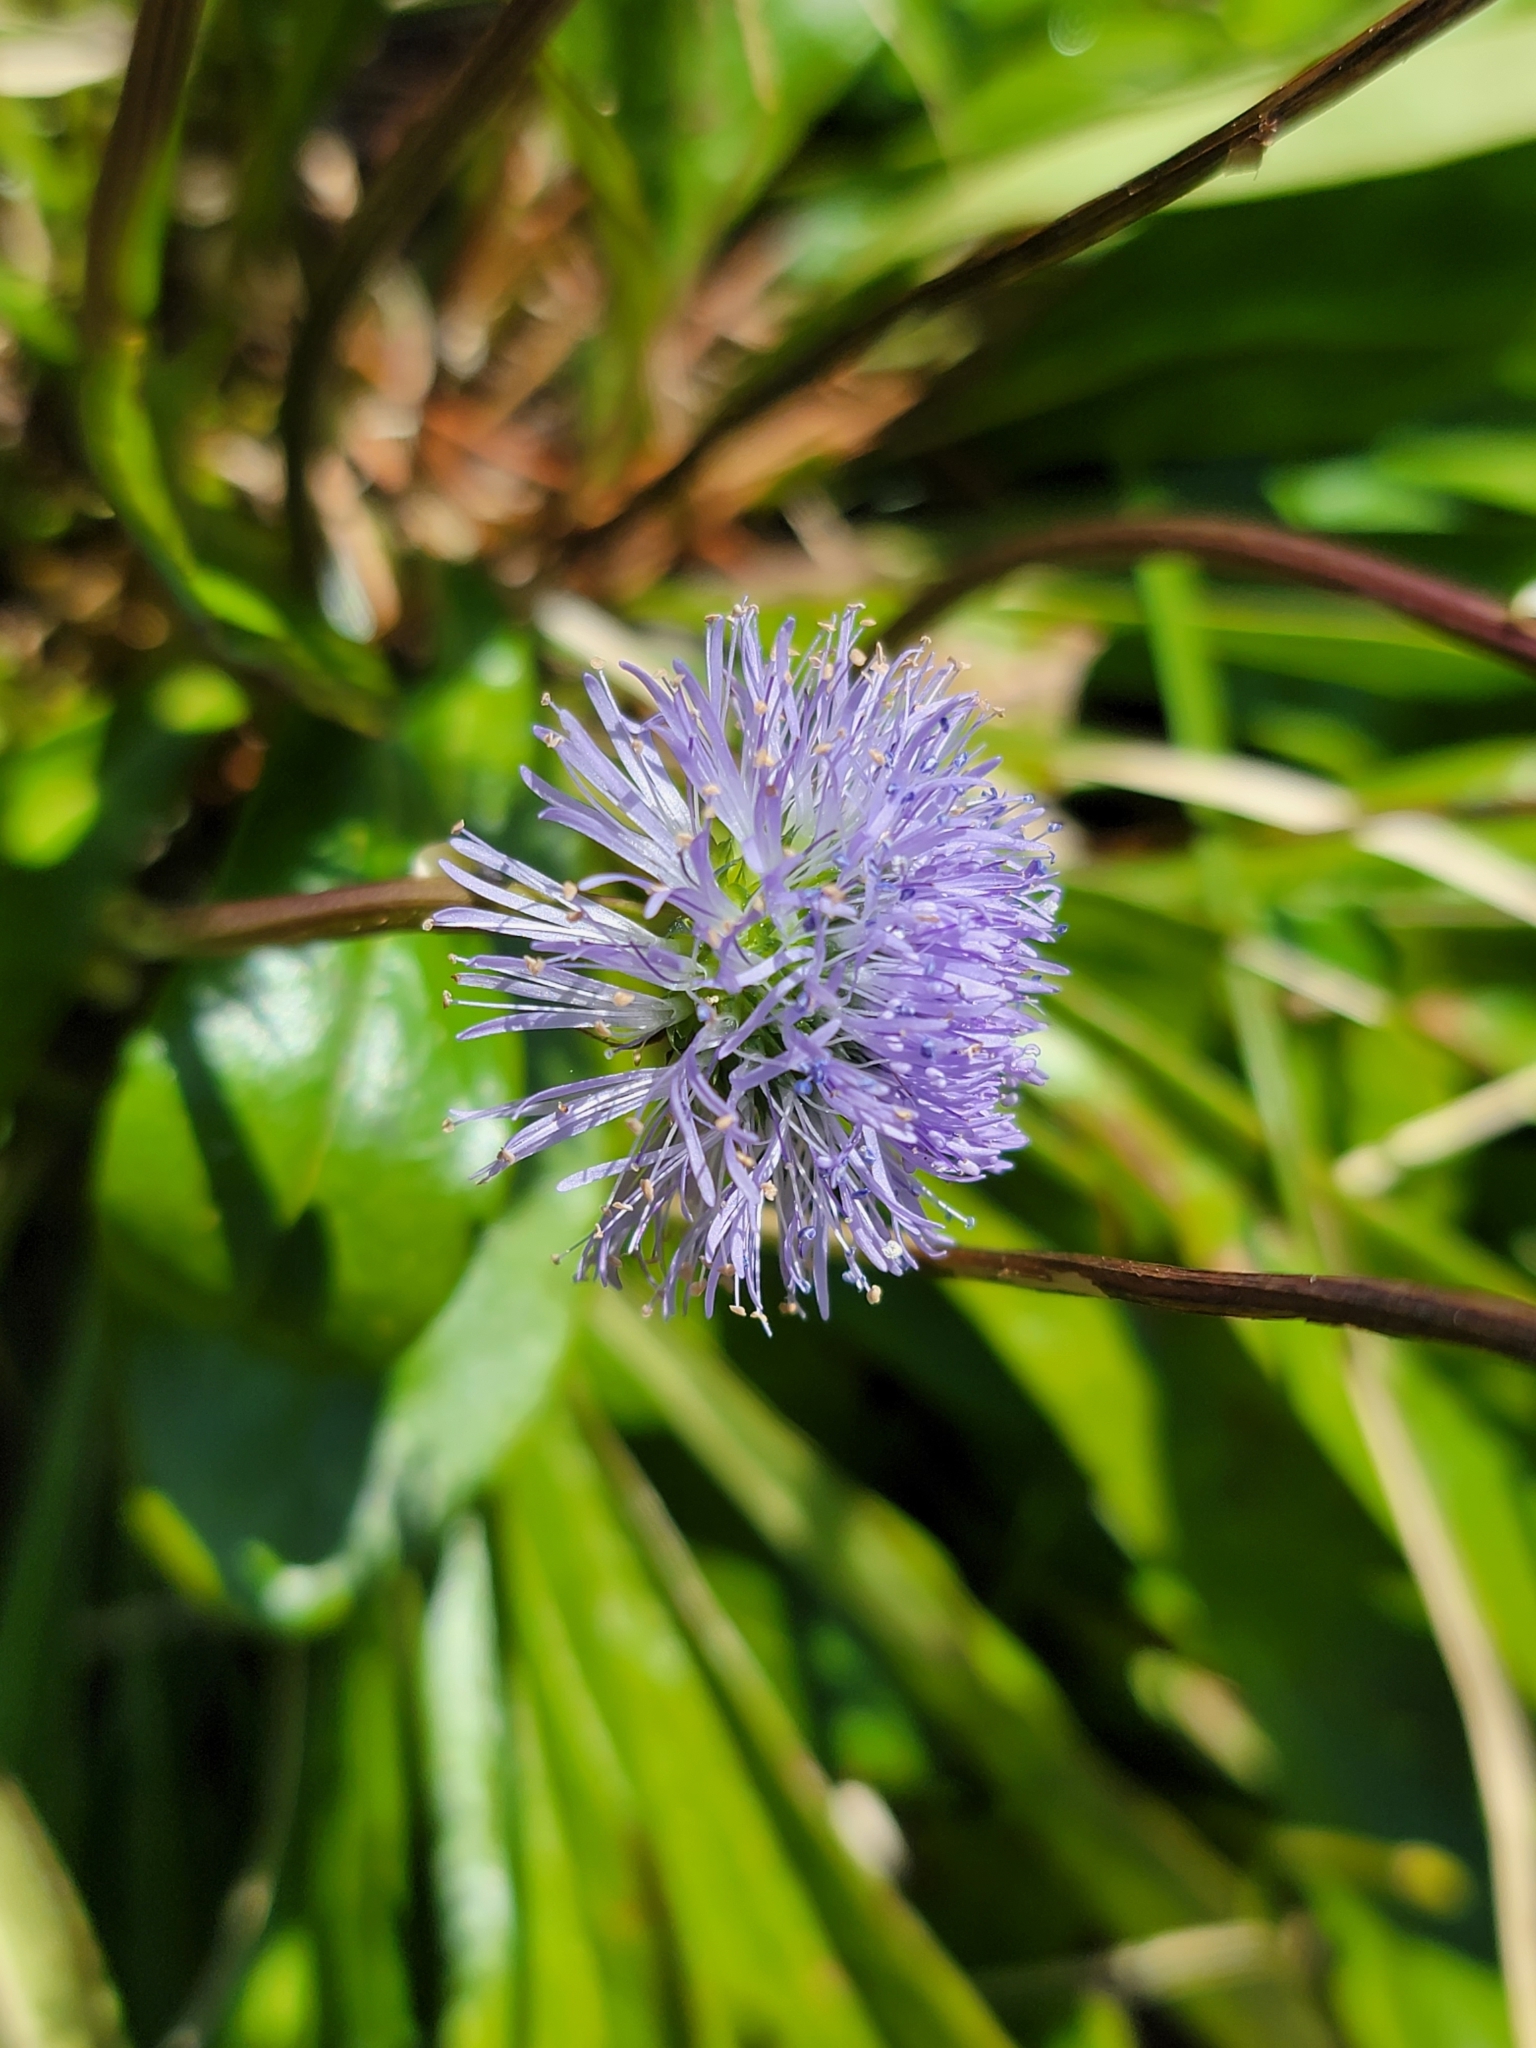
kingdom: Plantae
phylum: Tracheophyta
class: Magnoliopsida
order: Lamiales
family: Plantaginaceae
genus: Globularia
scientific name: Globularia nudicaulis
